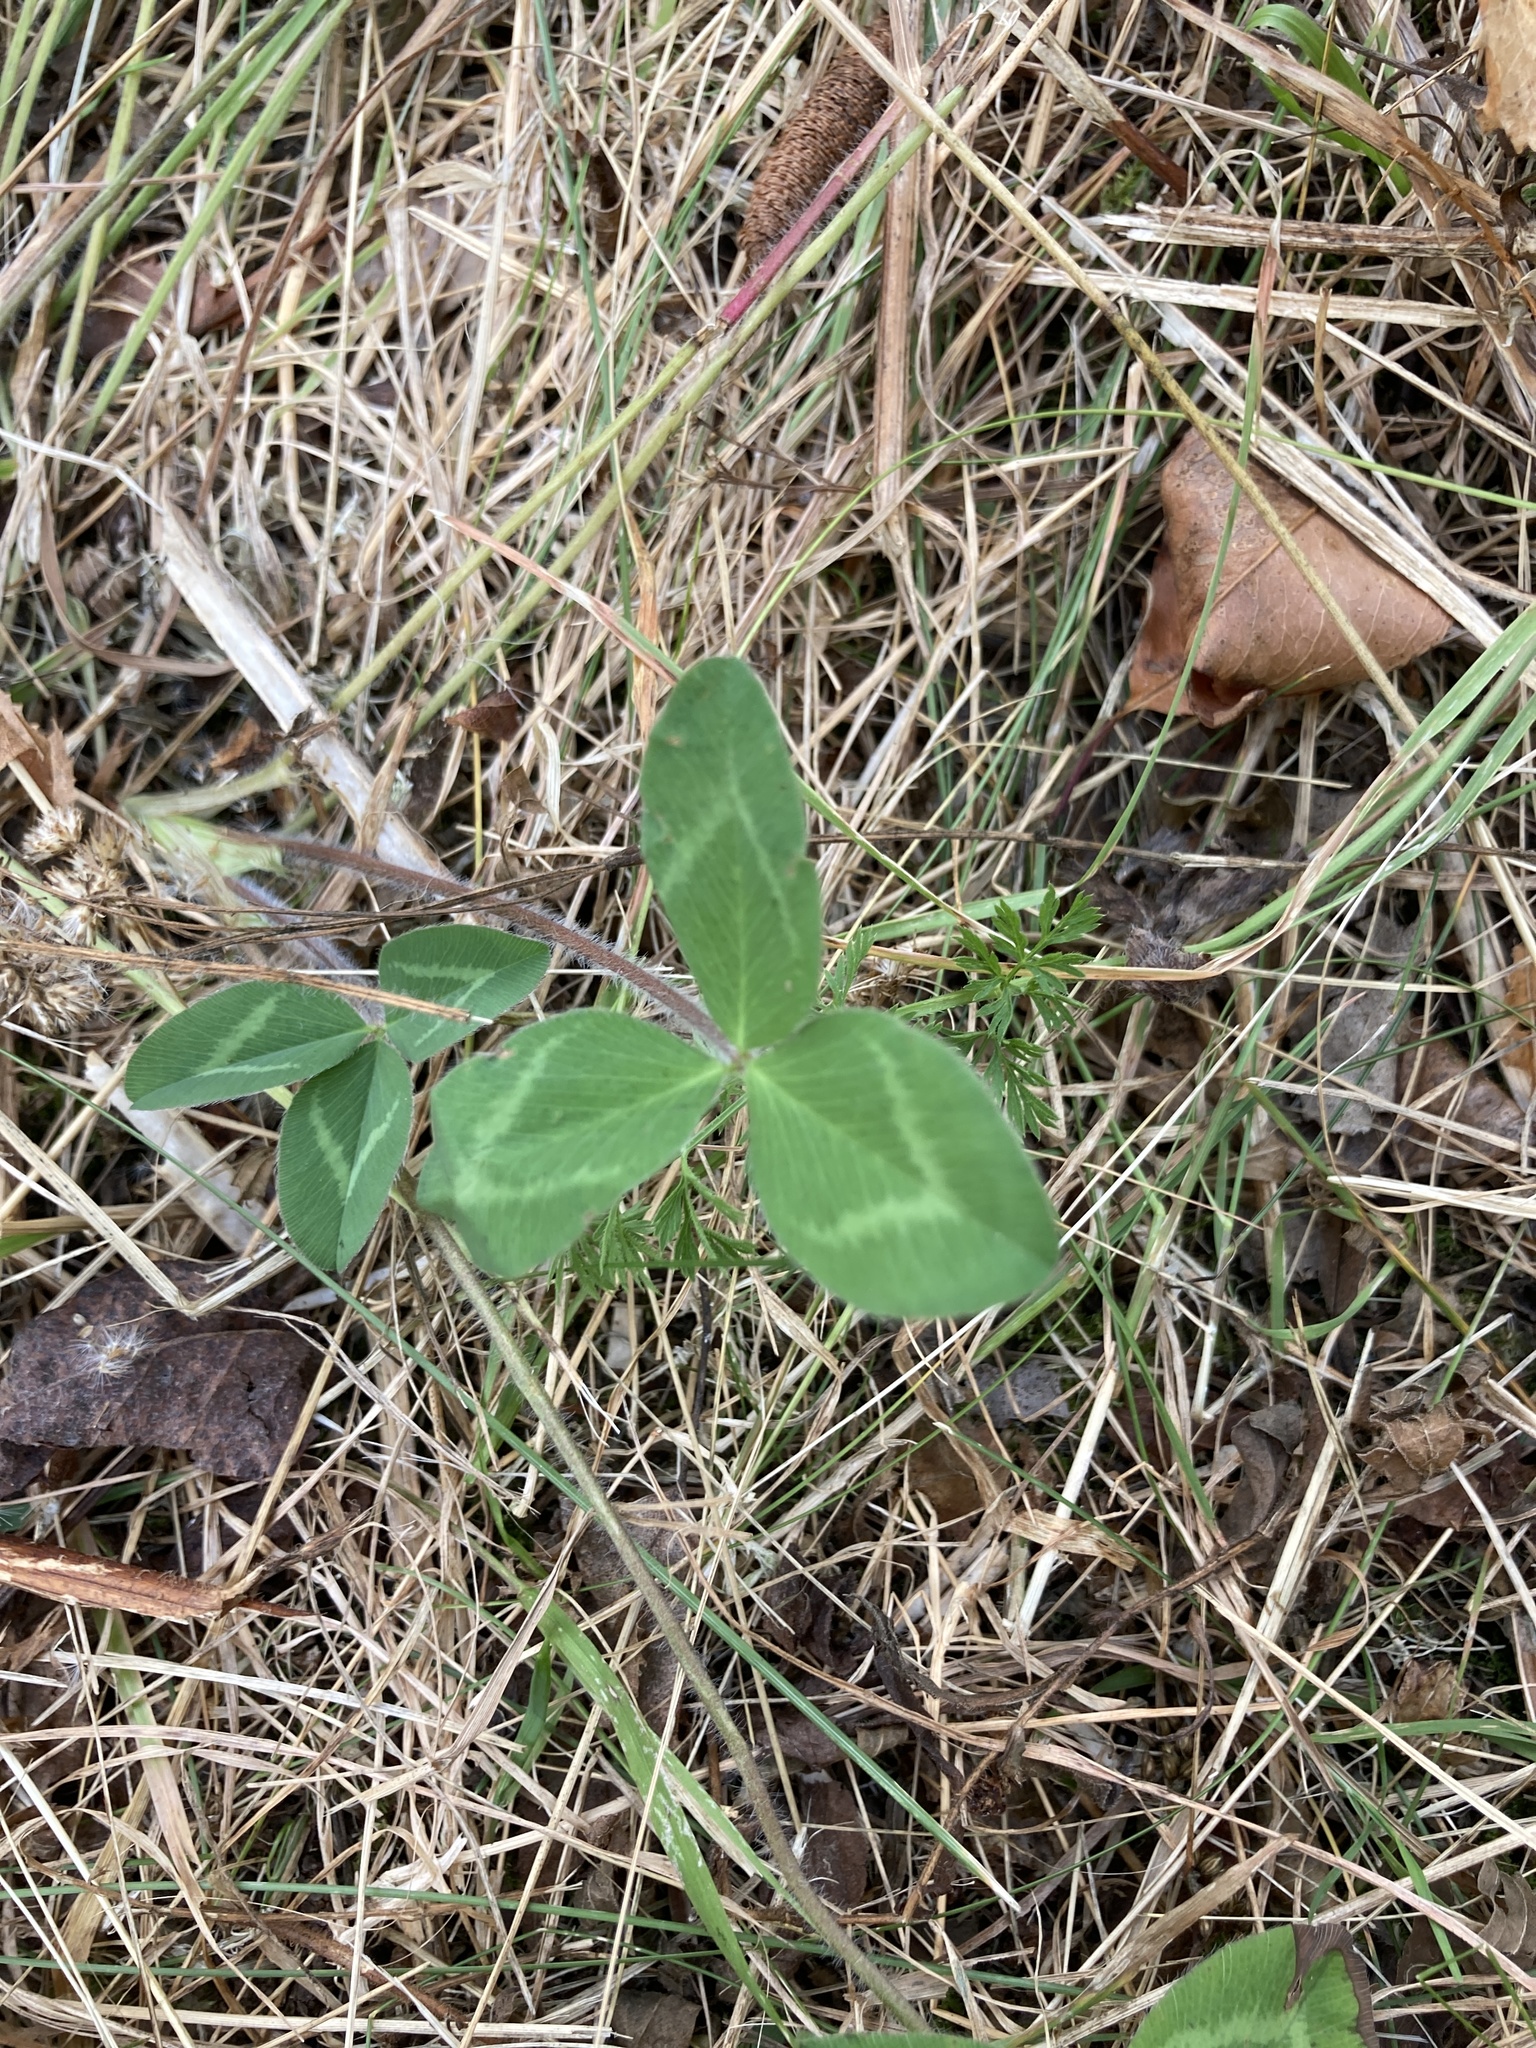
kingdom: Plantae
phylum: Tracheophyta
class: Magnoliopsida
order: Fabales
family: Fabaceae
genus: Trifolium
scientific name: Trifolium pratense
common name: Red clover
